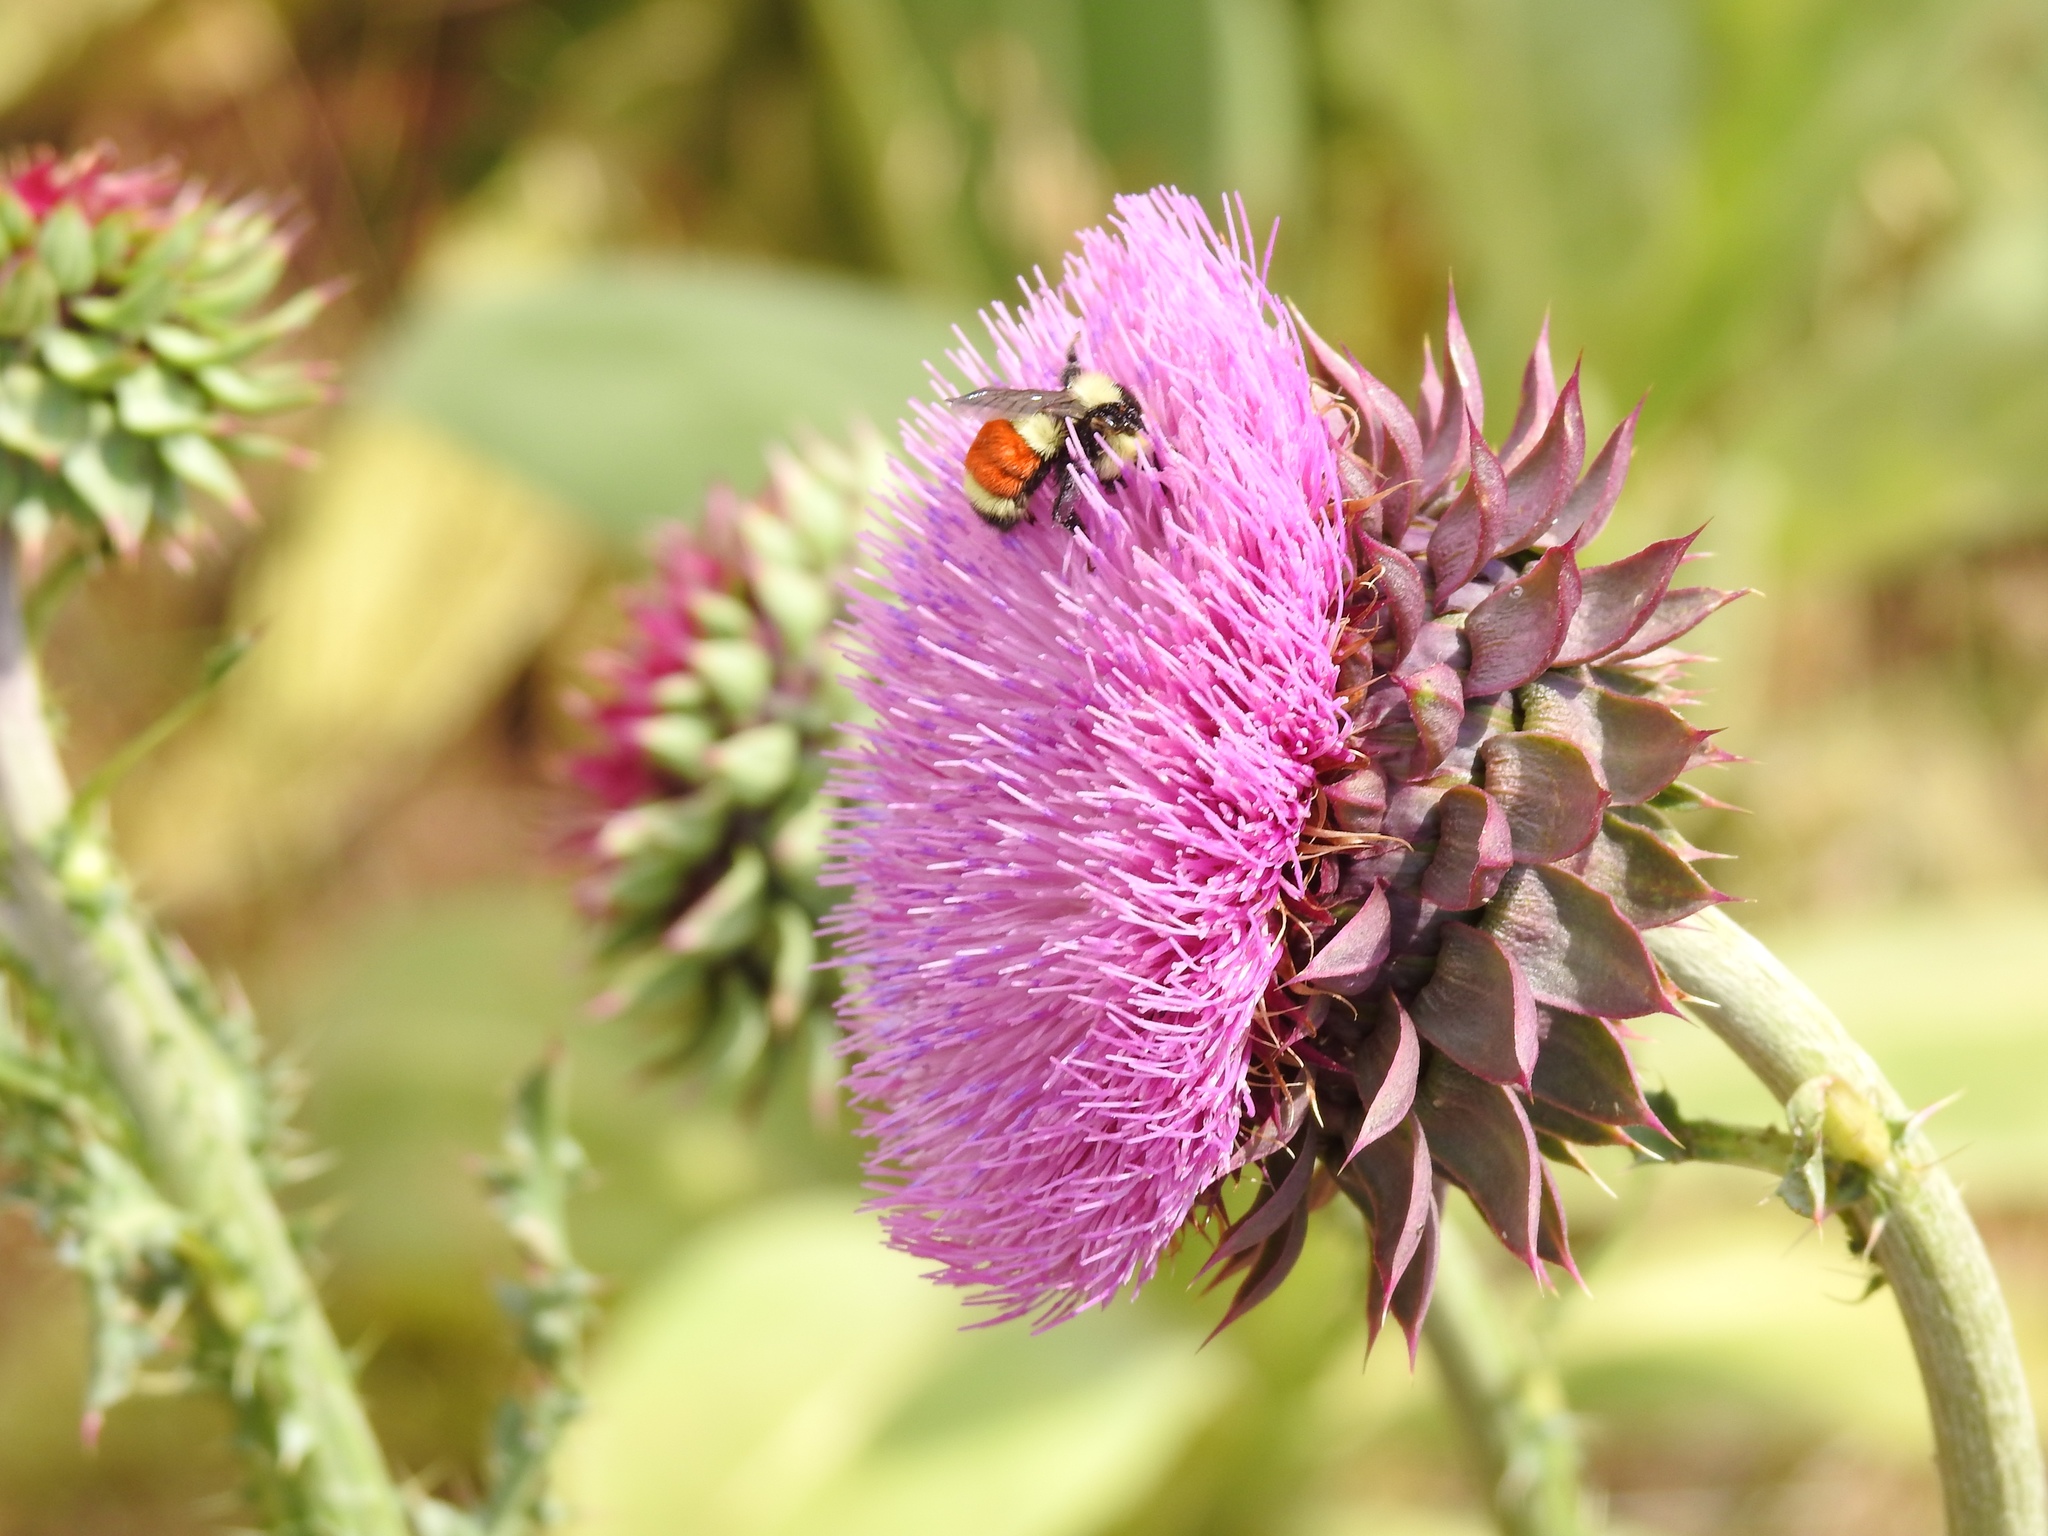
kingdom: Animalia
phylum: Arthropoda
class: Insecta
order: Hymenoptera
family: Apidae
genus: Bombus
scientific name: Bombus huntii
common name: Hunt bumble bee
